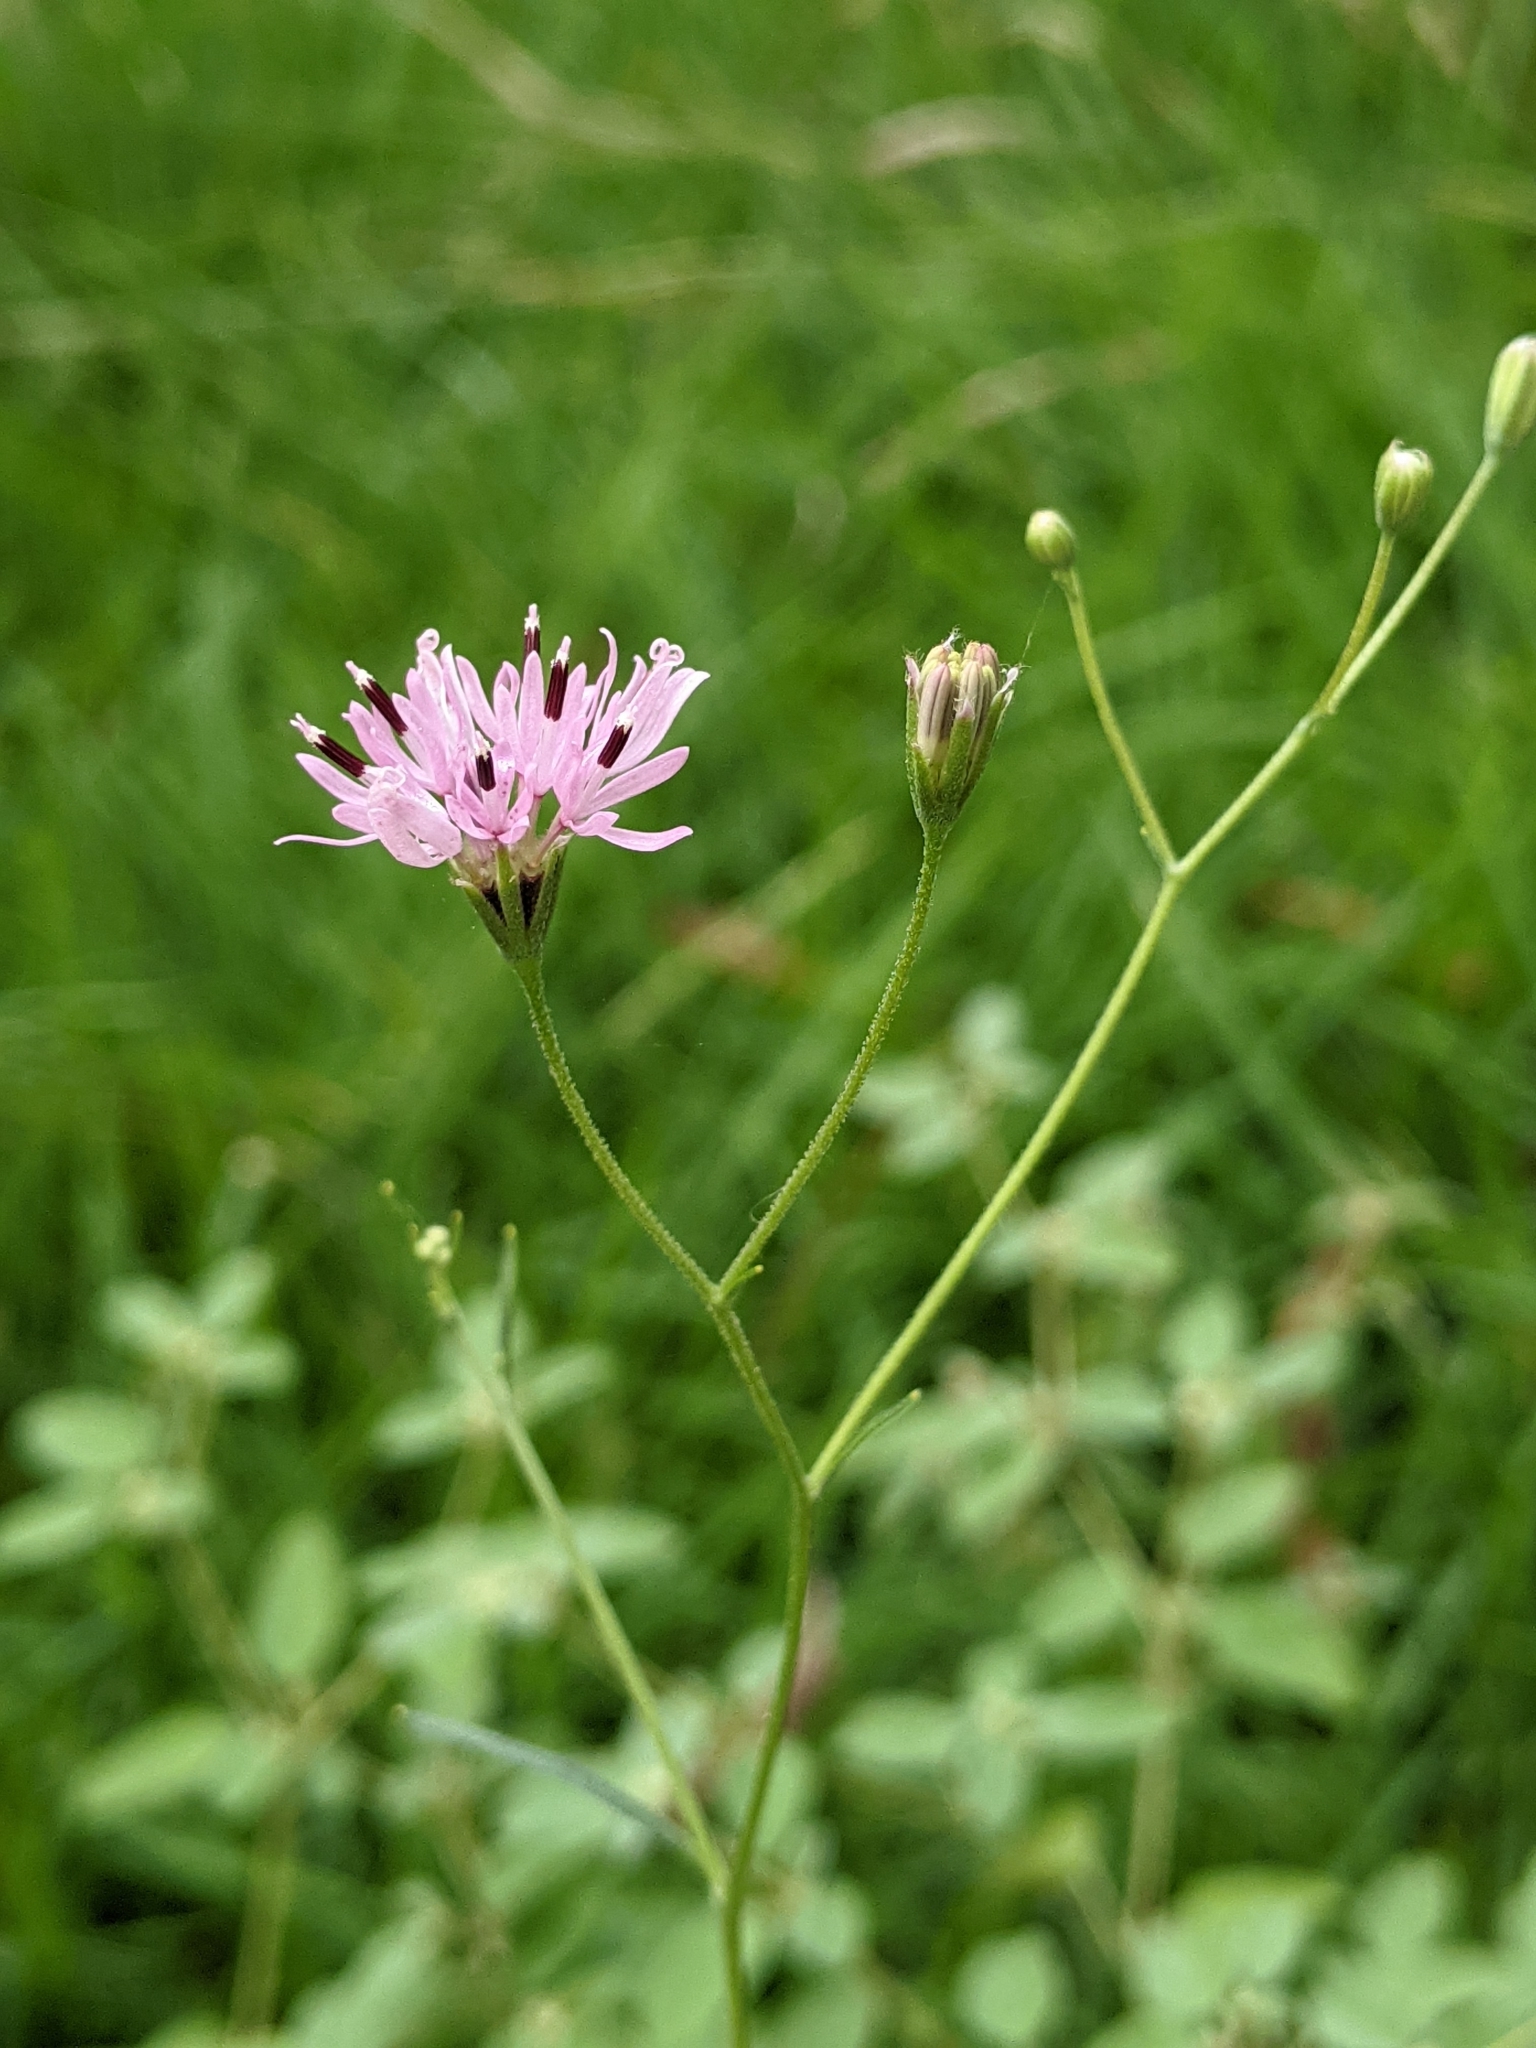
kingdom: Plantae
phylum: Tracheophyta
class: Magnoliopsida
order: Asterales
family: Asteraceae
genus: Palafoxia
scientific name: Palafoxia callosa
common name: Small palafox
